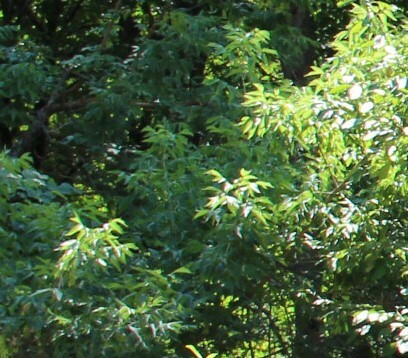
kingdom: Plantae
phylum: Tracheophyta
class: Magnoliopsida
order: Sapindales
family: Sapindaceae
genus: Acer
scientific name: Acer negundo
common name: Ashleaf maple
